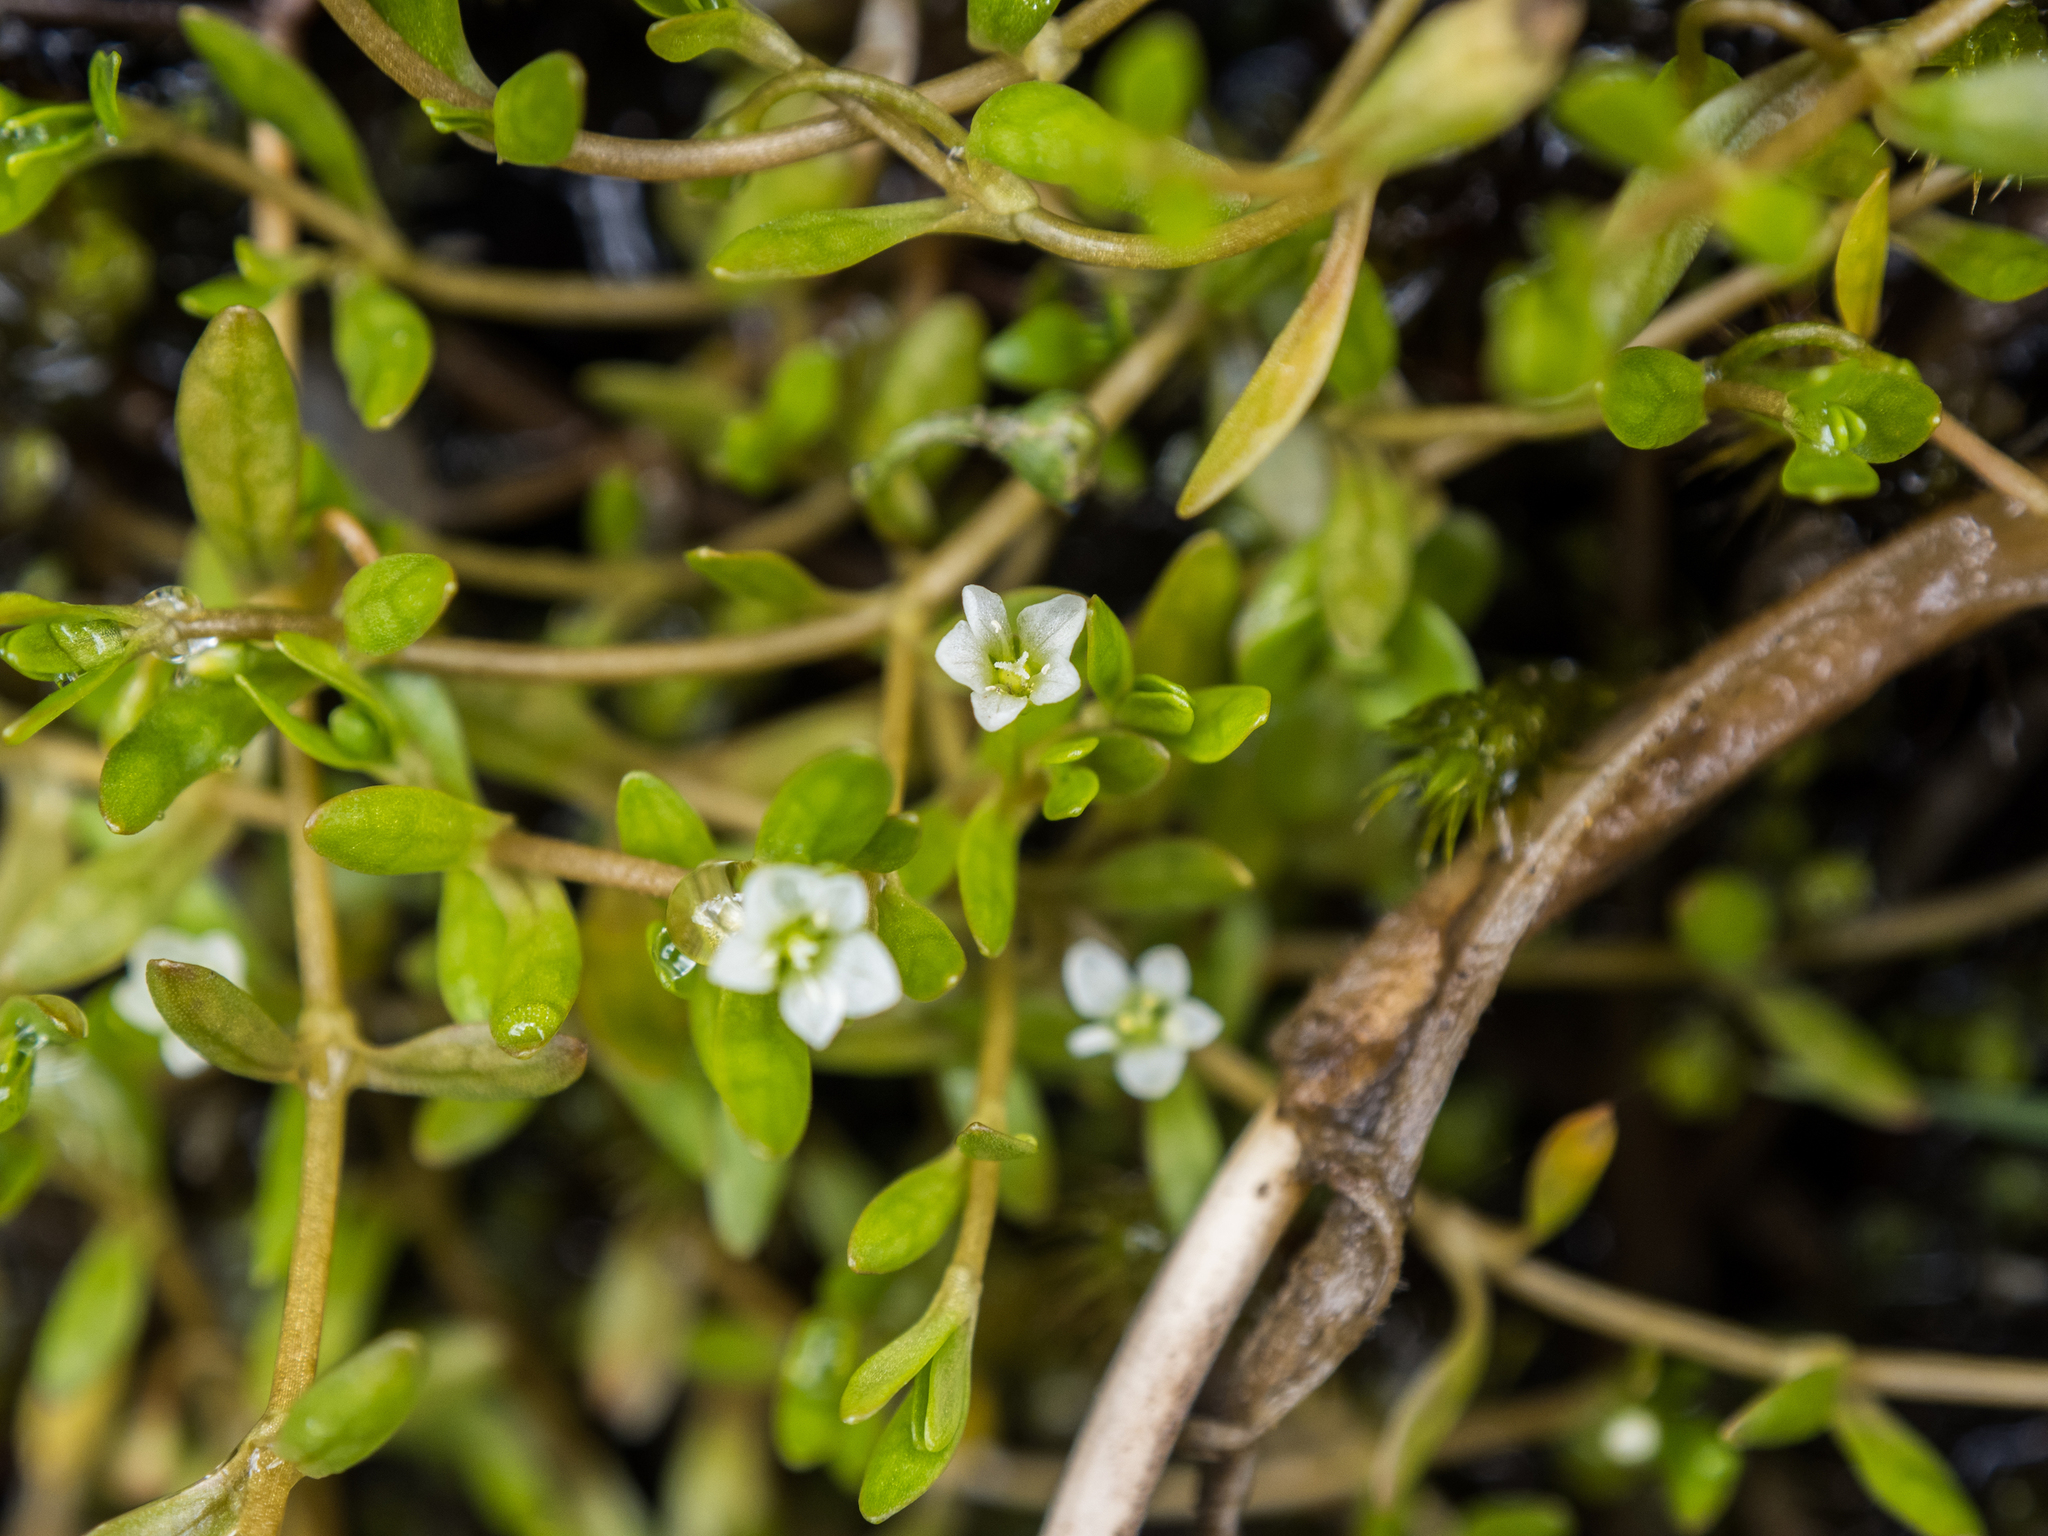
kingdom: Plantae
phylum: Tracheophyta
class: Magnoliopsida
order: Caryophyllales
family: Montiaceae
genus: Montia
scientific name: Montia fontana
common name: Blinks
